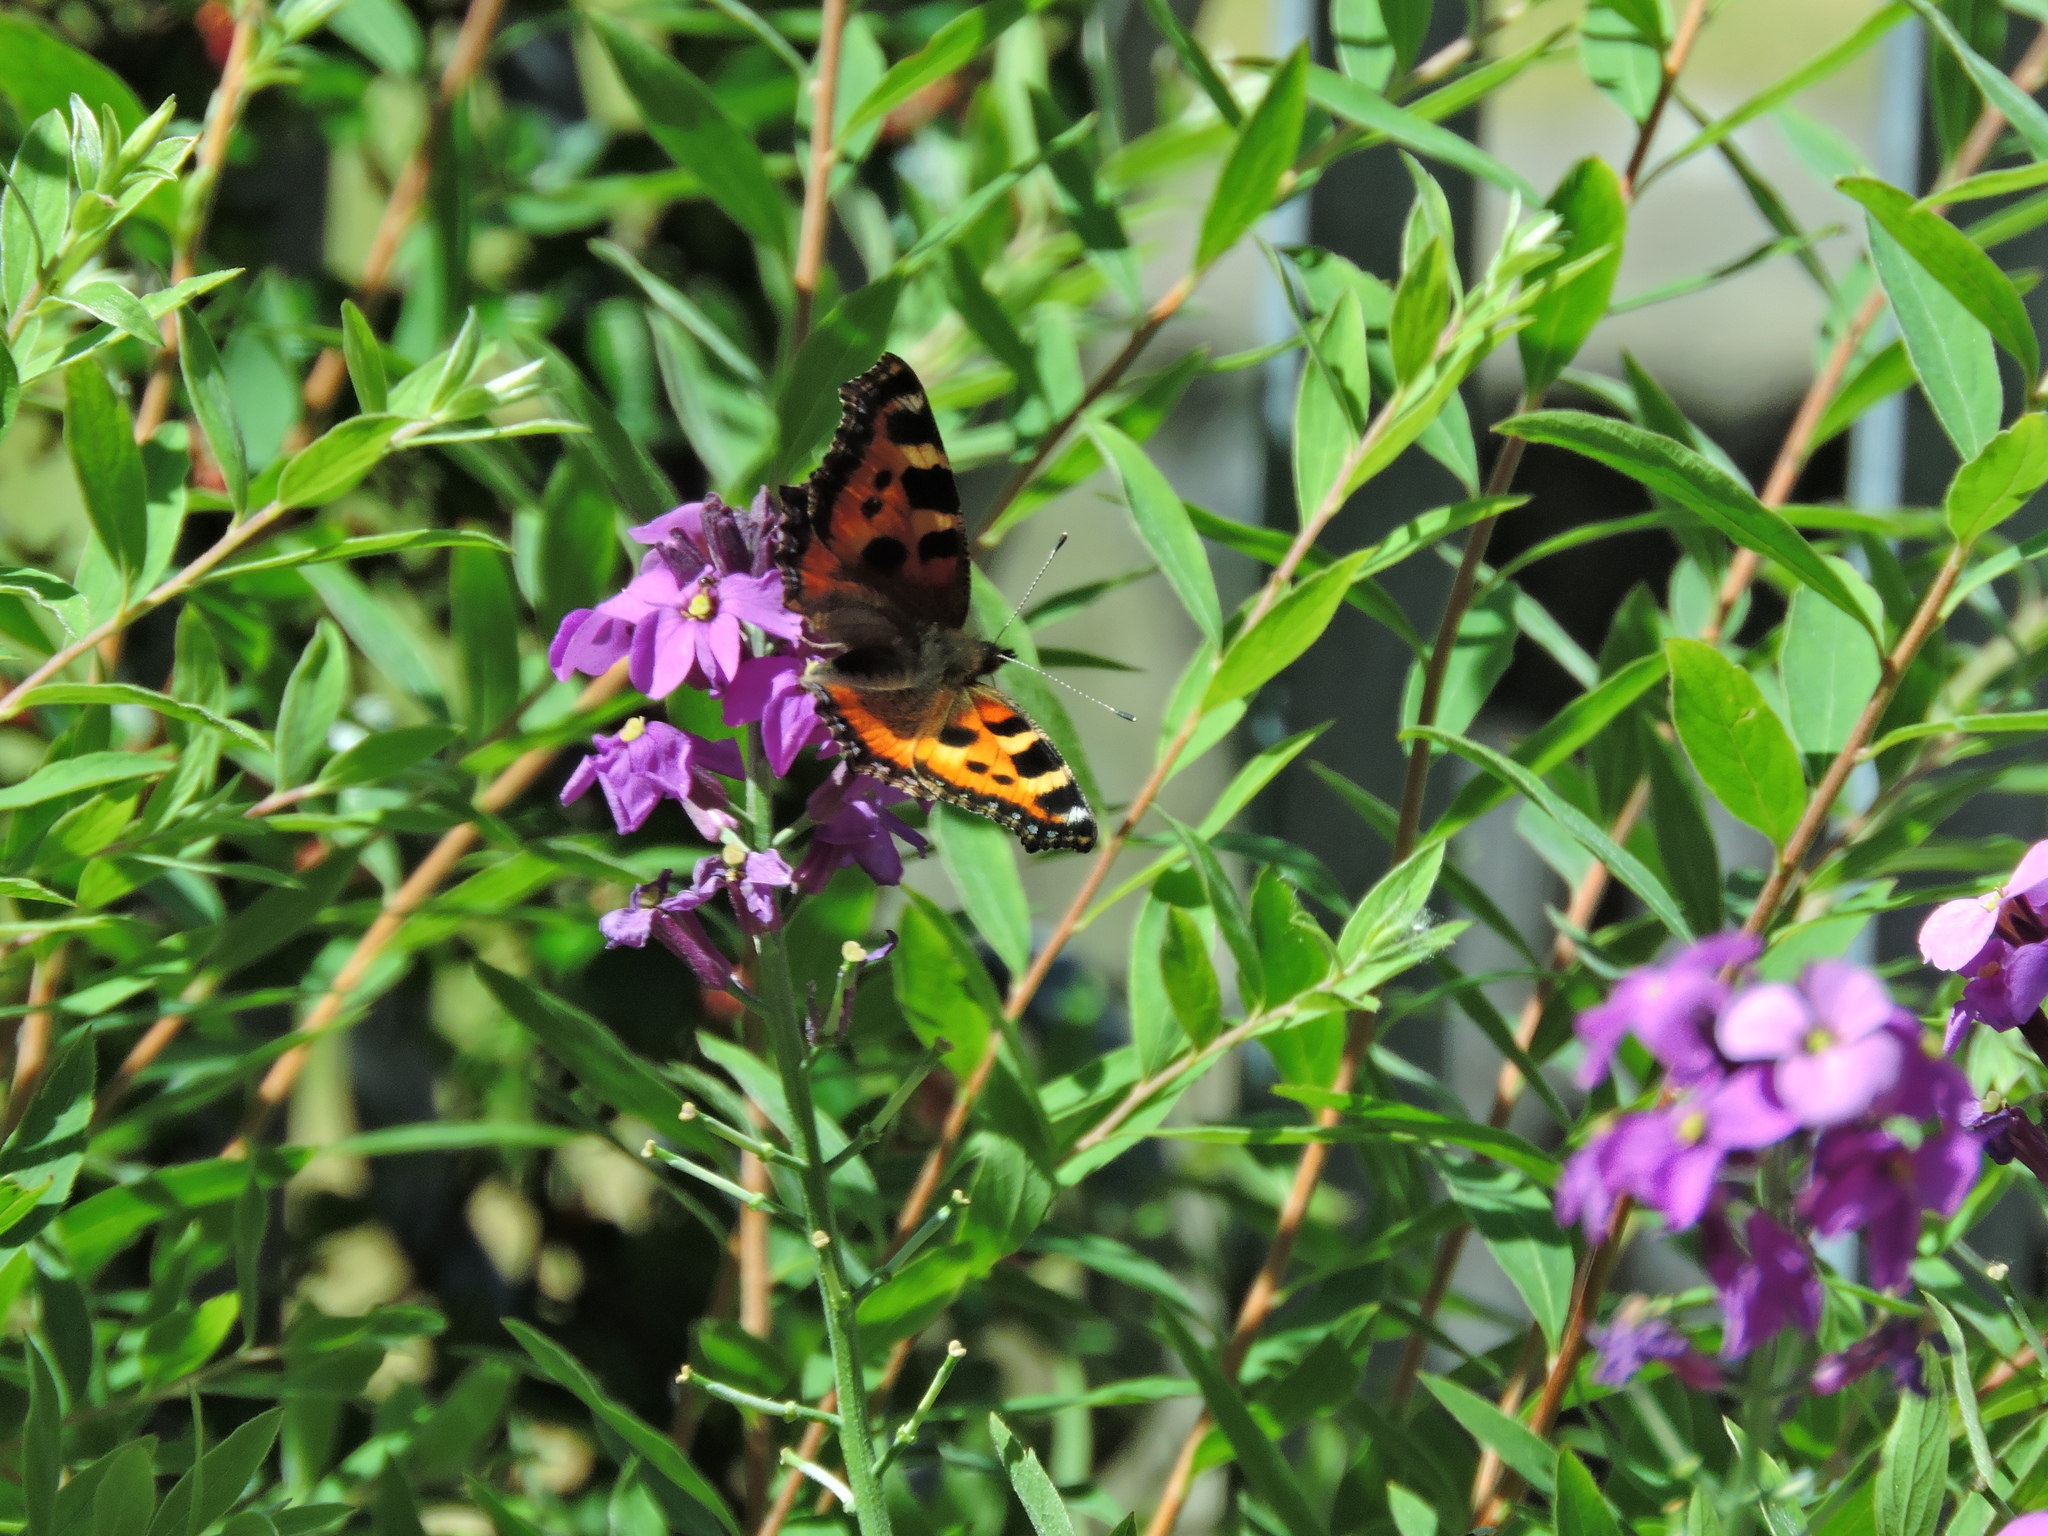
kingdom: Animalia
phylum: Arthropoda
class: Insecta
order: Lepidoptera
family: Nymphalidae
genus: Aglais
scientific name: Aglais urticae
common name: Small tortoiseshell
